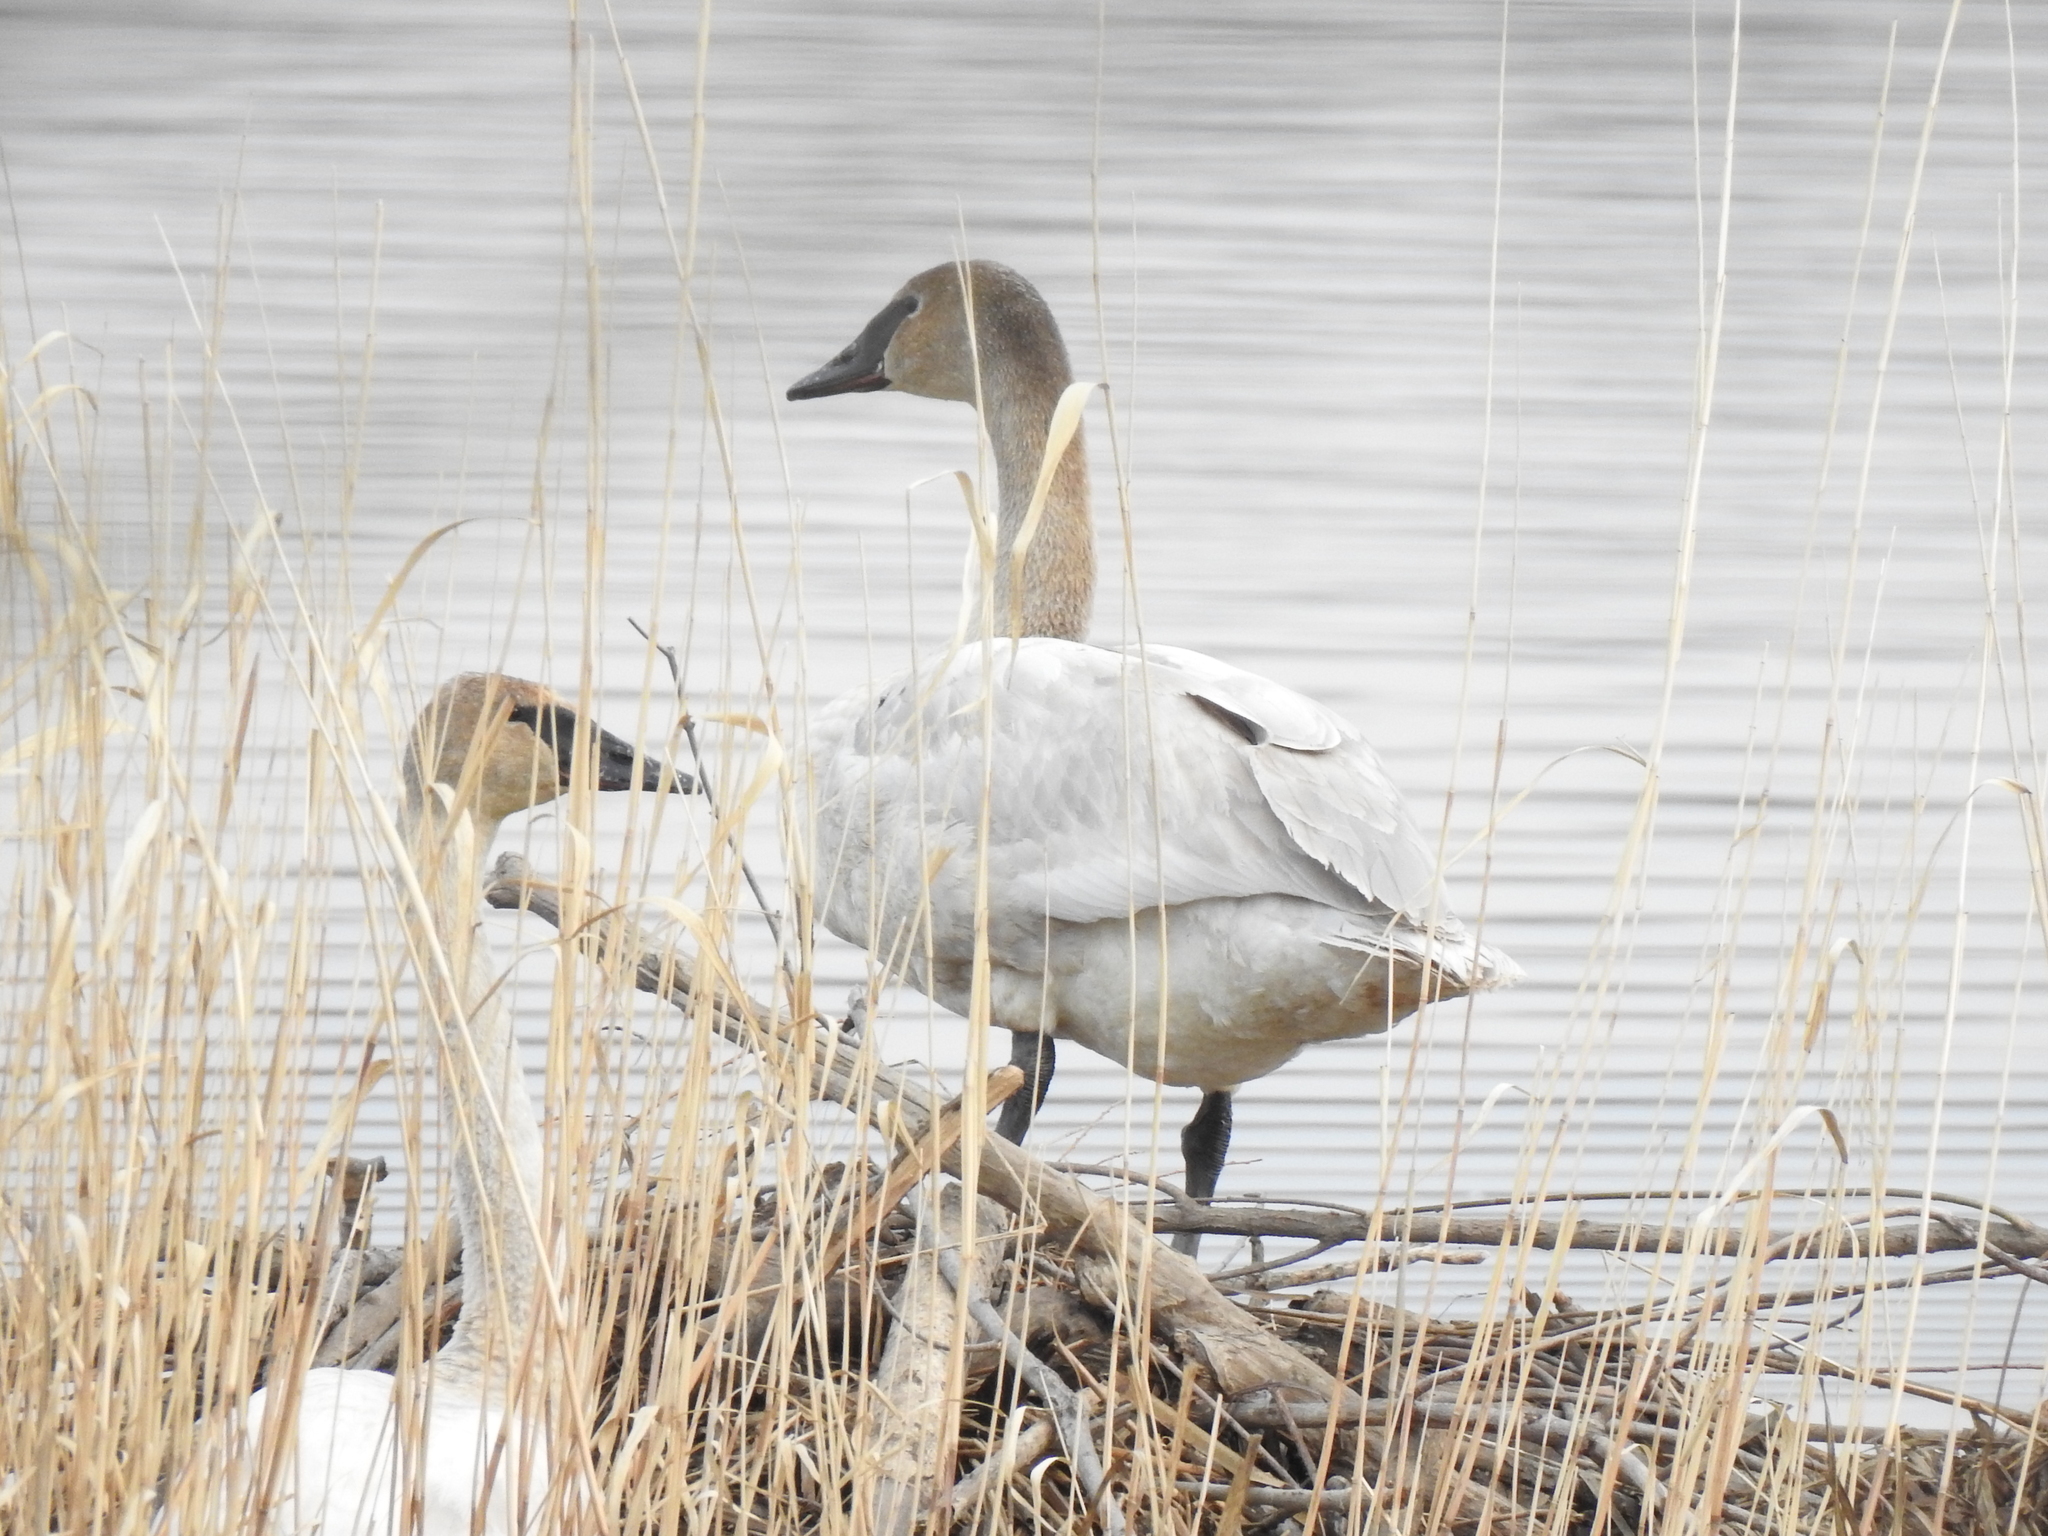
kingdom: Animalia
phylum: Chordata
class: Aves
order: Anseriformes
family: Anatidae
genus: Cygnus
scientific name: Cygnus buccinator
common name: Trumpeter swan
